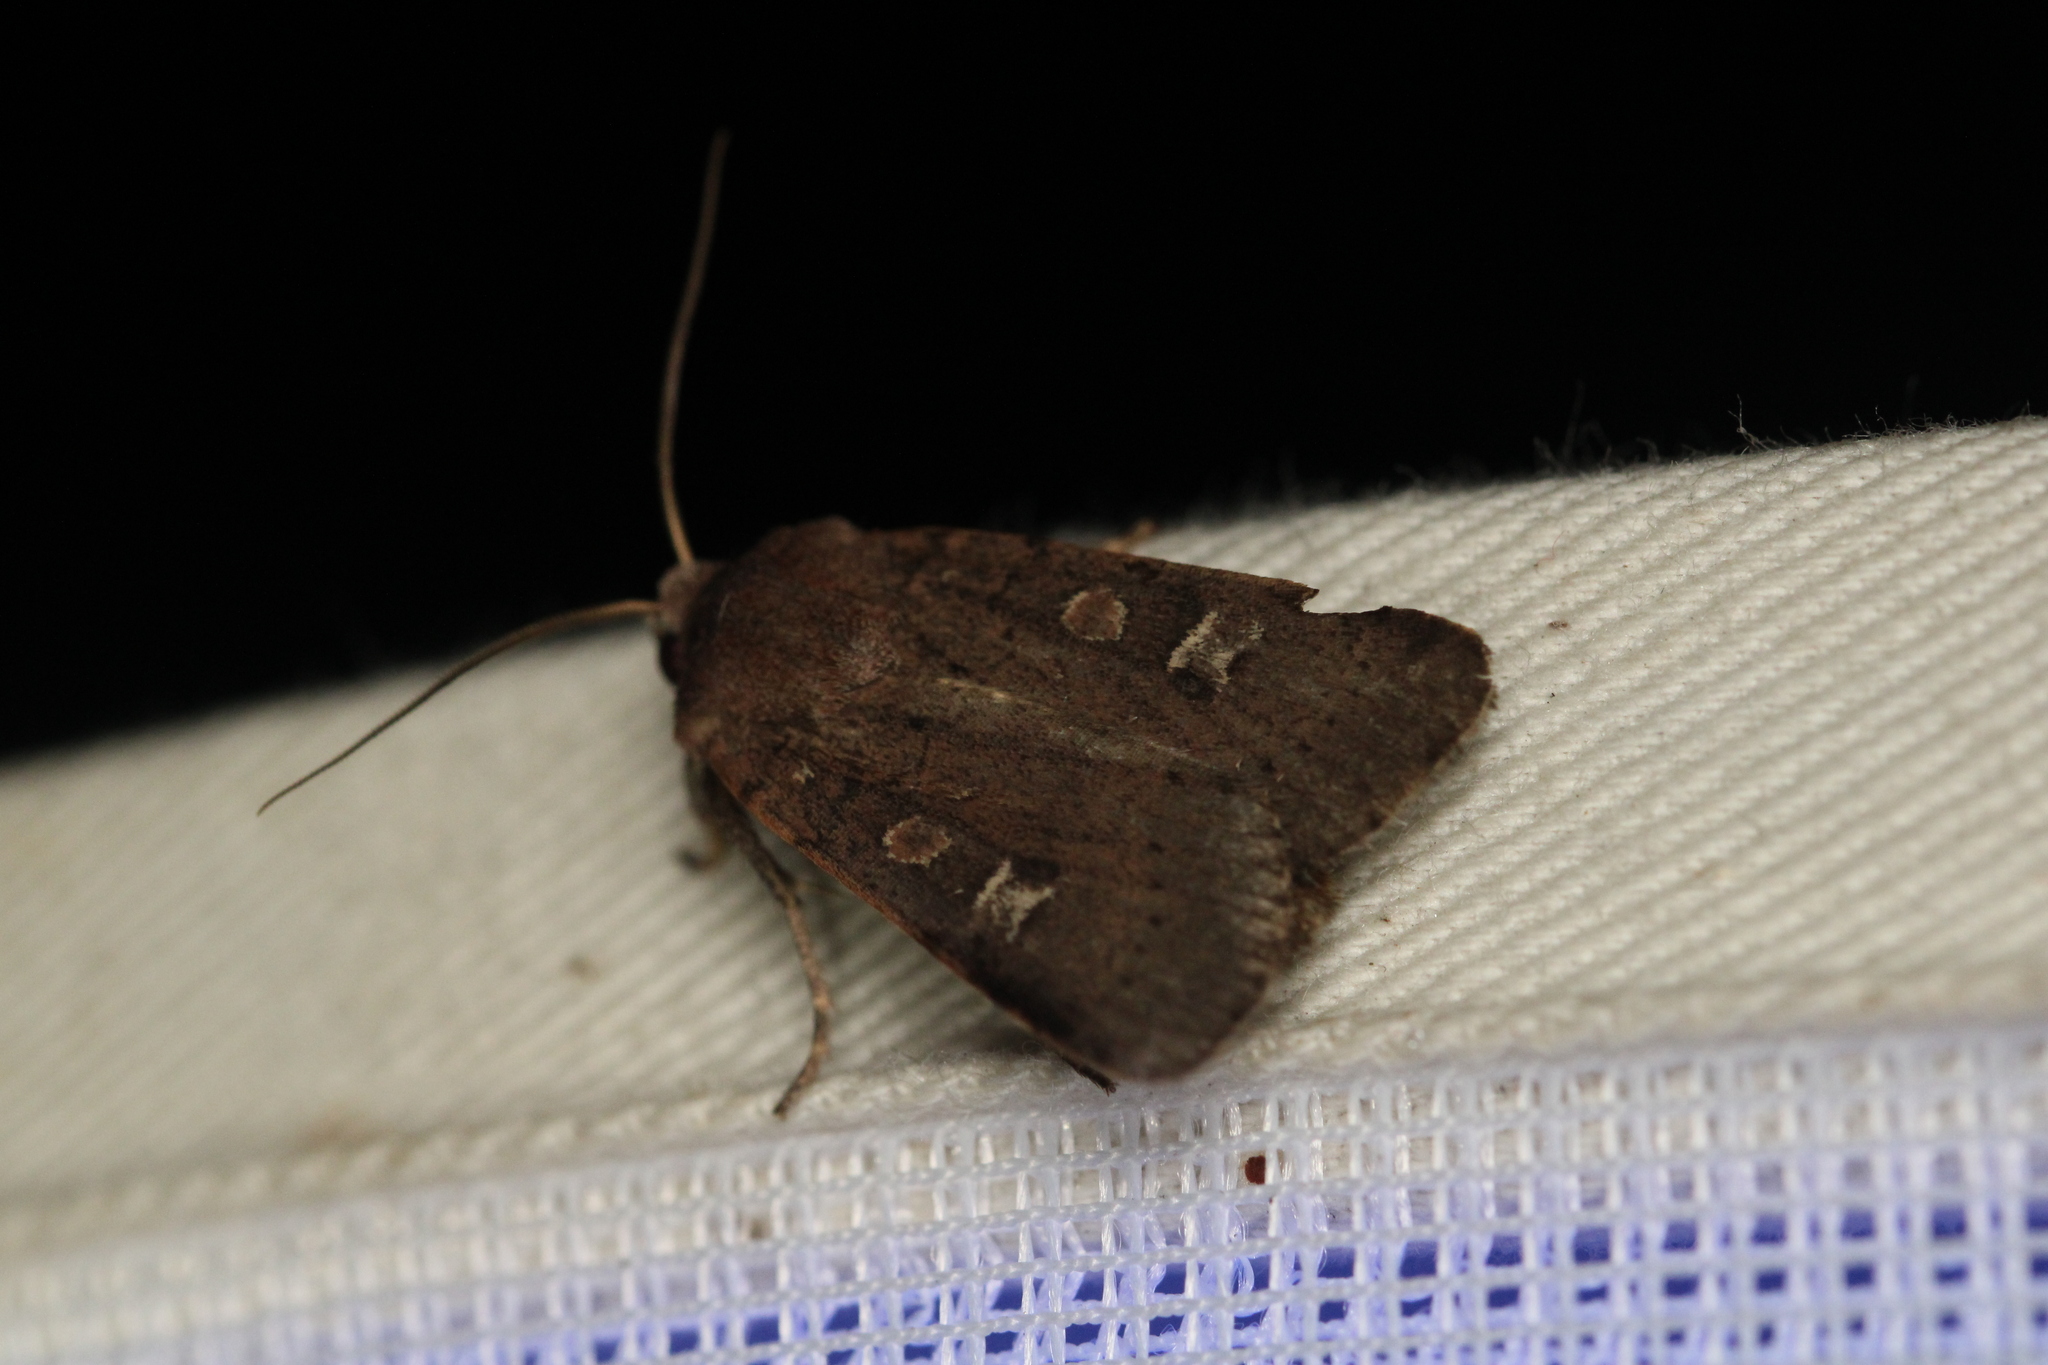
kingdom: Animalia
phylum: Arthropoda
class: Insecta
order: Lepidoptera
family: Noctuidae
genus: Xestia
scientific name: Xestia xanthographa
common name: Square-spot rustic
